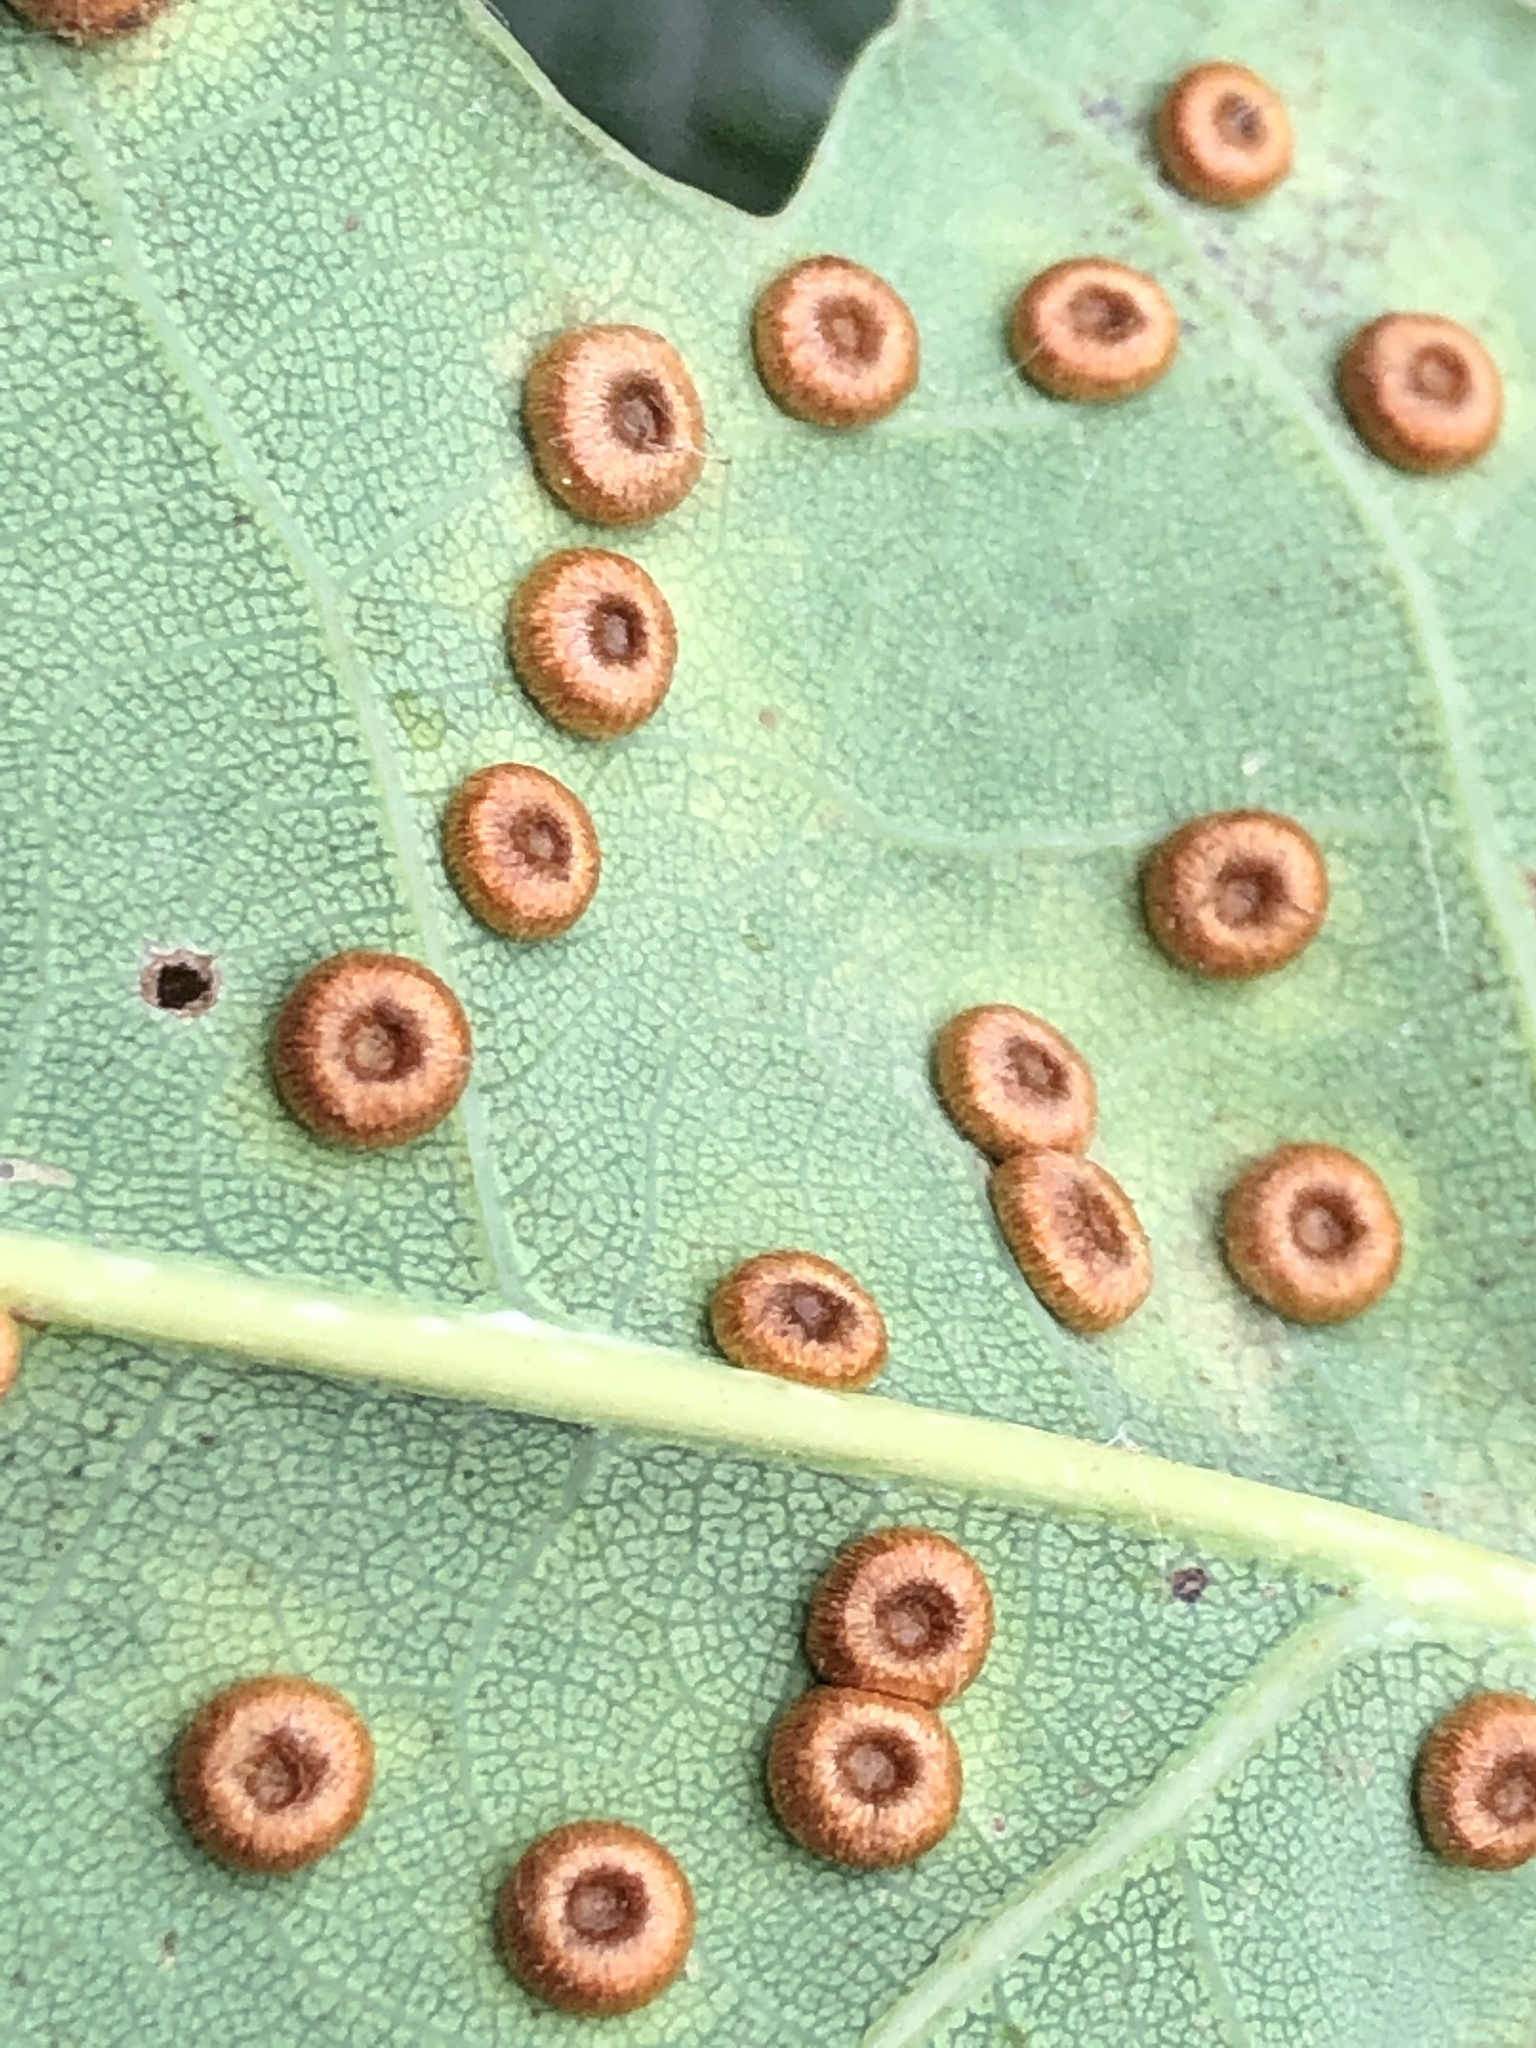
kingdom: Animalia
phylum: Arthropoda
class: Insecta
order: Hymenoptera
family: Cynipidae
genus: Neuroterus
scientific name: Neuroterus numismalis
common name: Silk-button spangle gall
